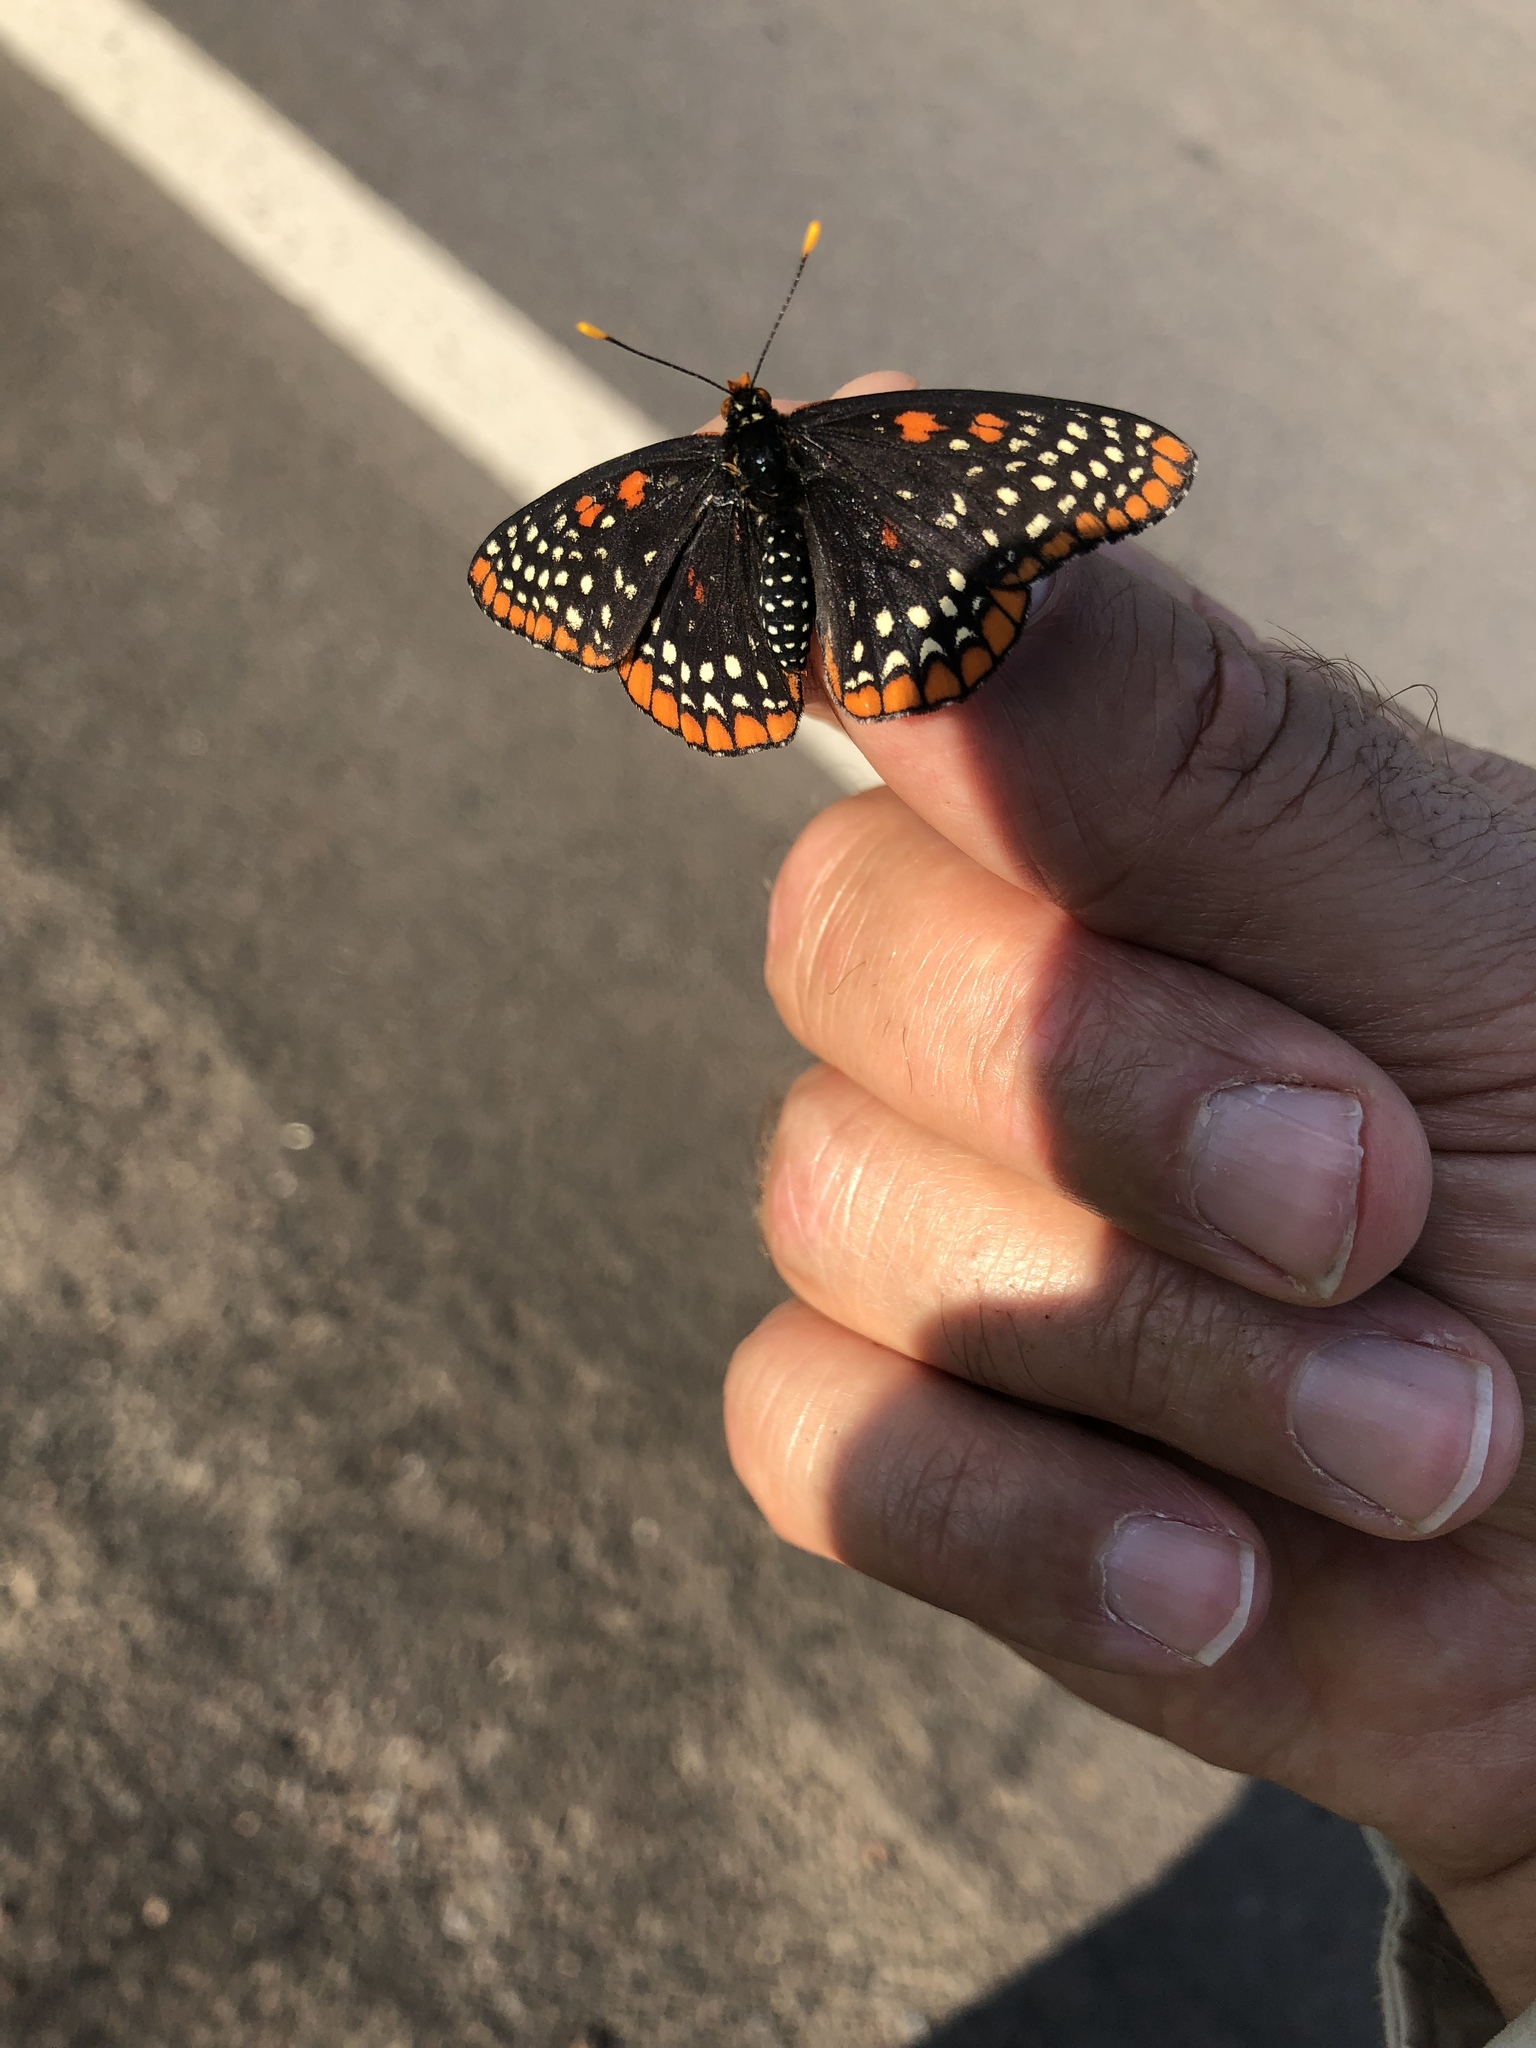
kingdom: Animalia
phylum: Arthropoda
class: Insecta
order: Lepidoptera
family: Nymphalidae
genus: Euphydryas
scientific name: Euphydryas phaeton
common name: Baltimore checkerspot
